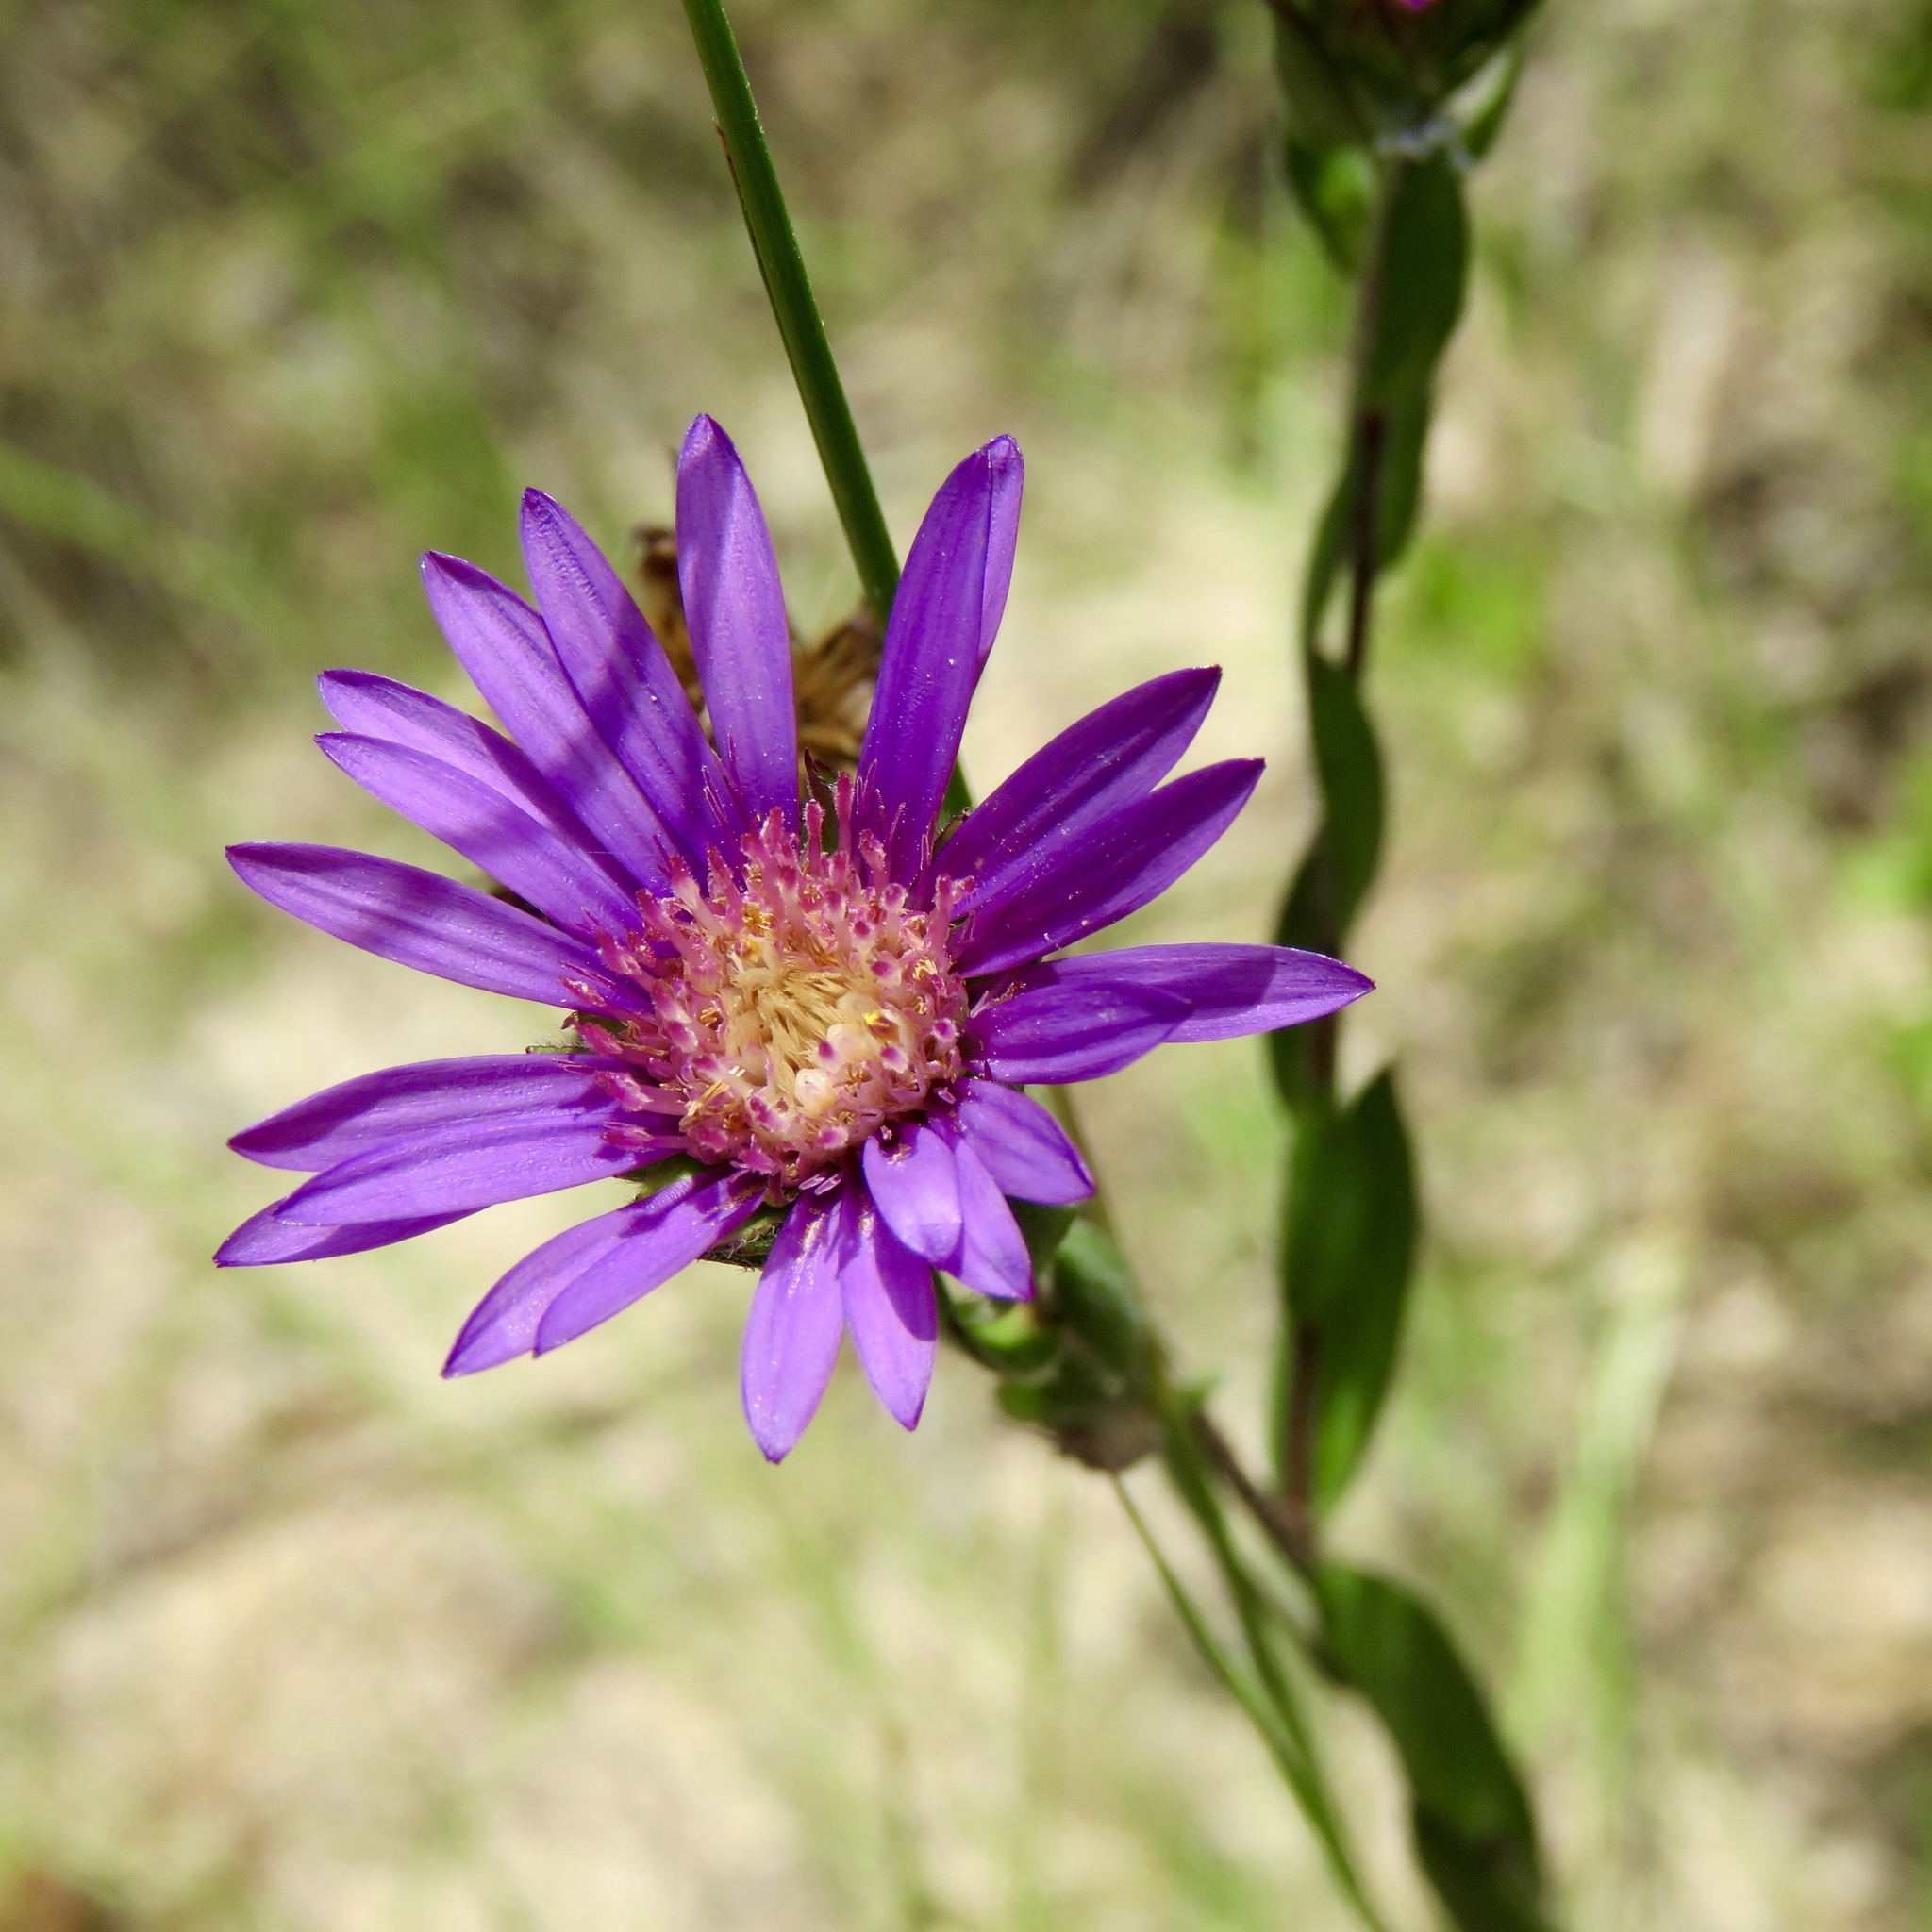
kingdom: Plantae
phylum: Tracheophyta
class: Magnoliopsida
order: Asterales
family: Asteraceae
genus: Symphyotrichum
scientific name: Symphyotrichum pratense
